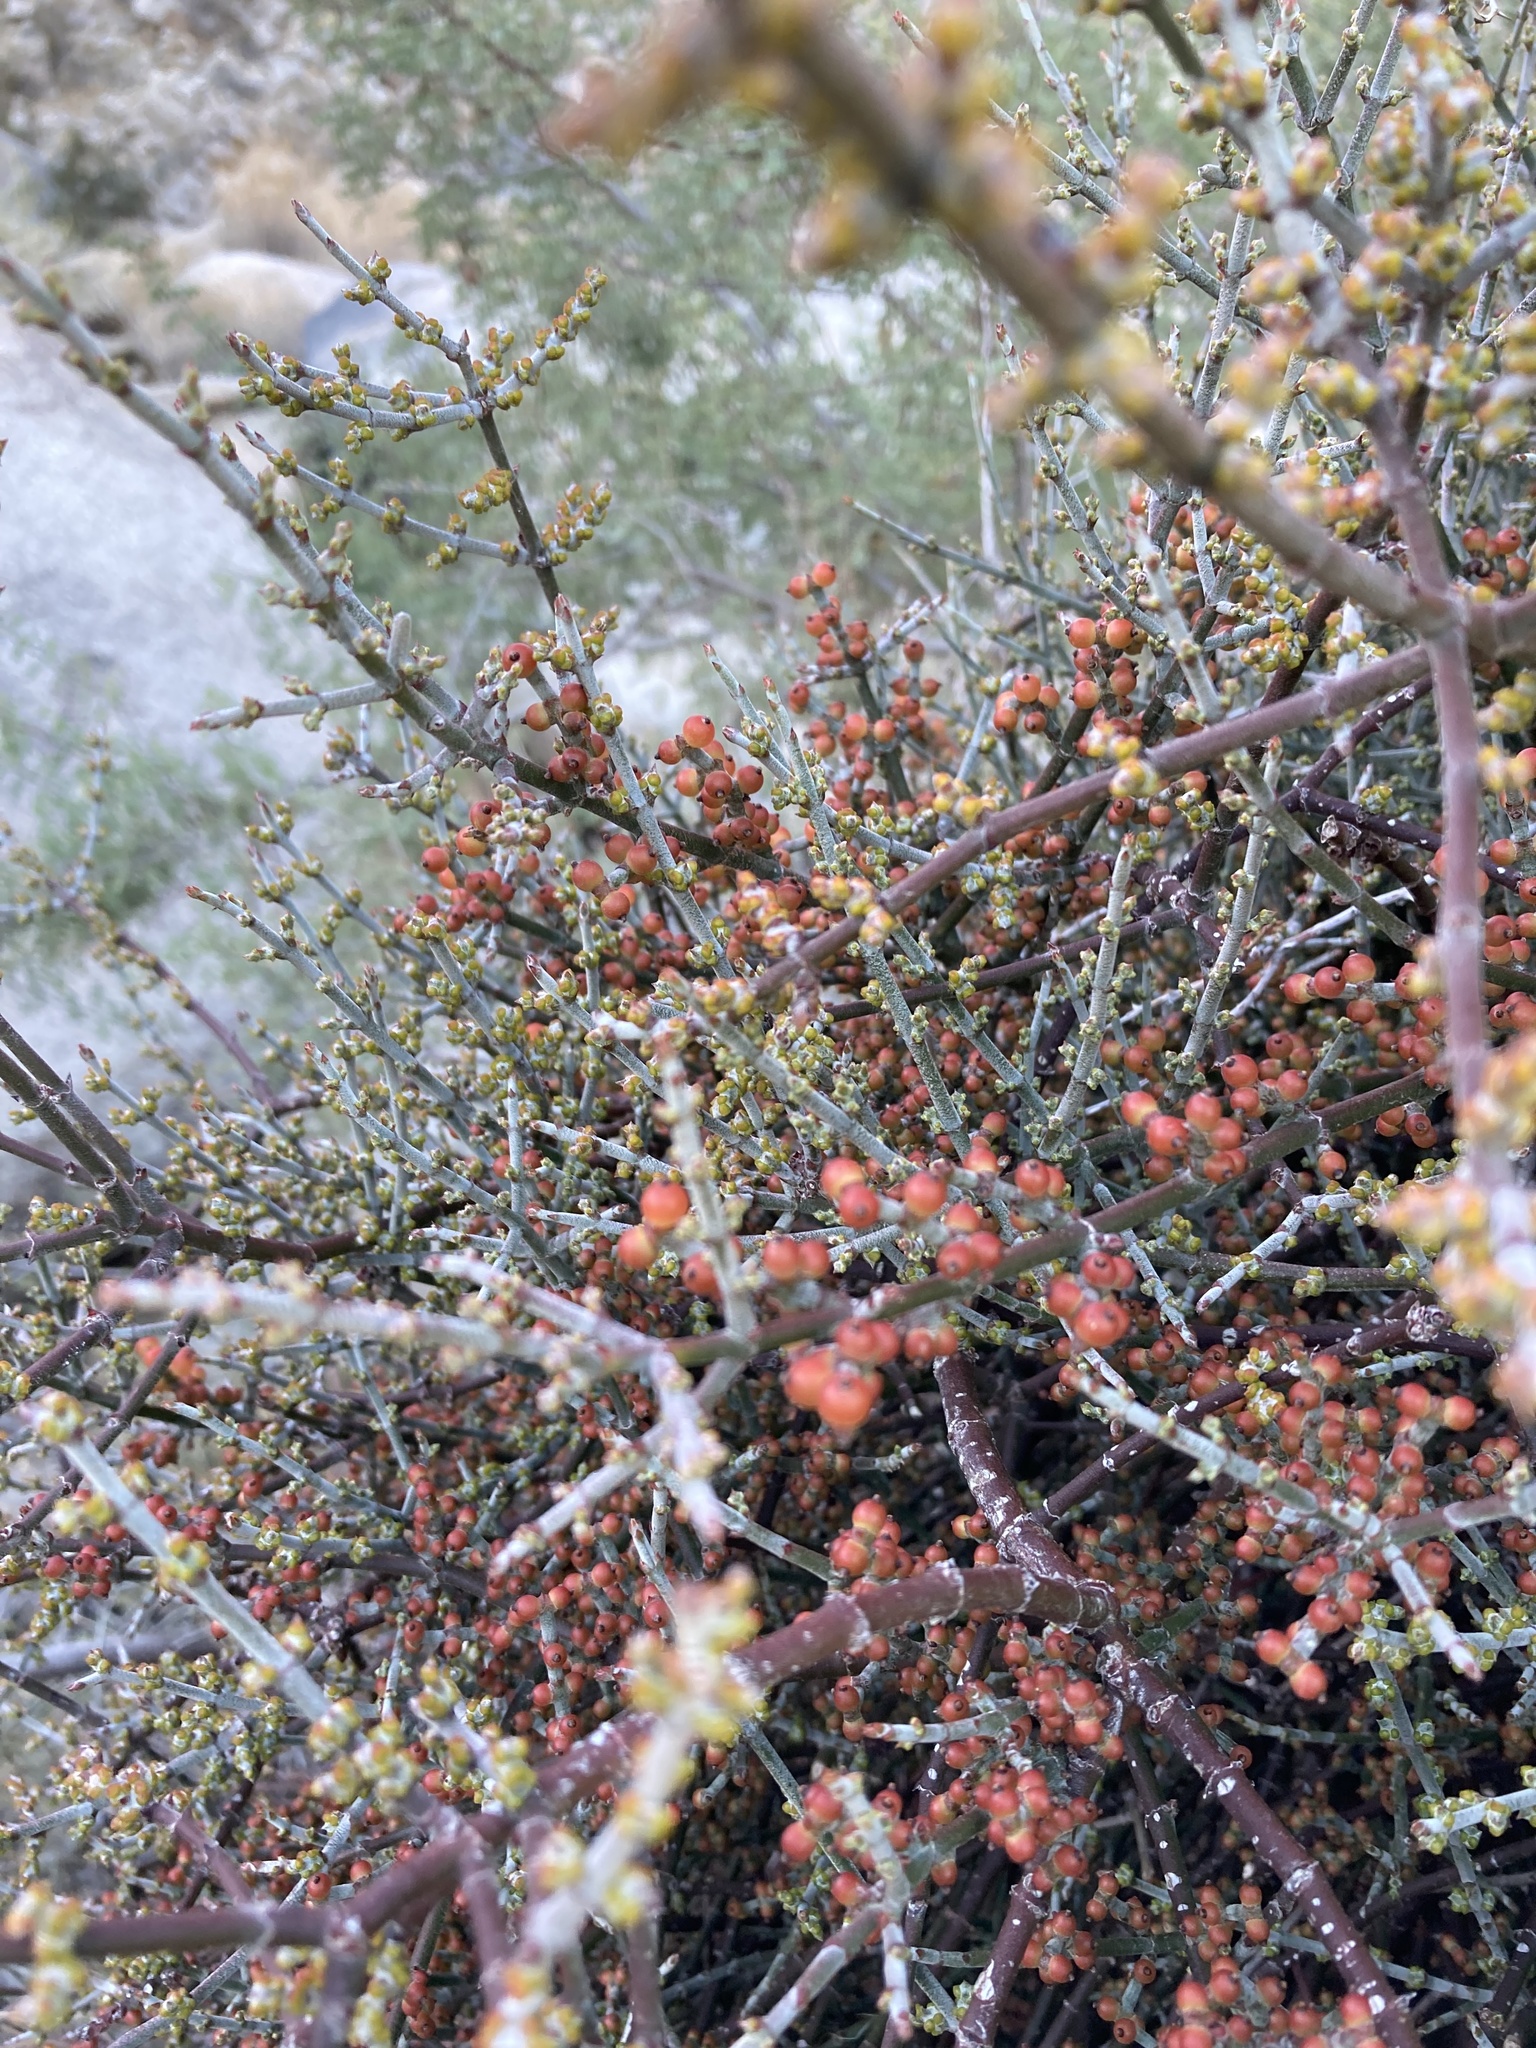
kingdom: Plantae
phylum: Tracheophyta
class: Magnoliopsida
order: Santalales
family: Viscaceae
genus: Phoradendron
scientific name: Phoradendron californicum
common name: Acacia mistletoe
